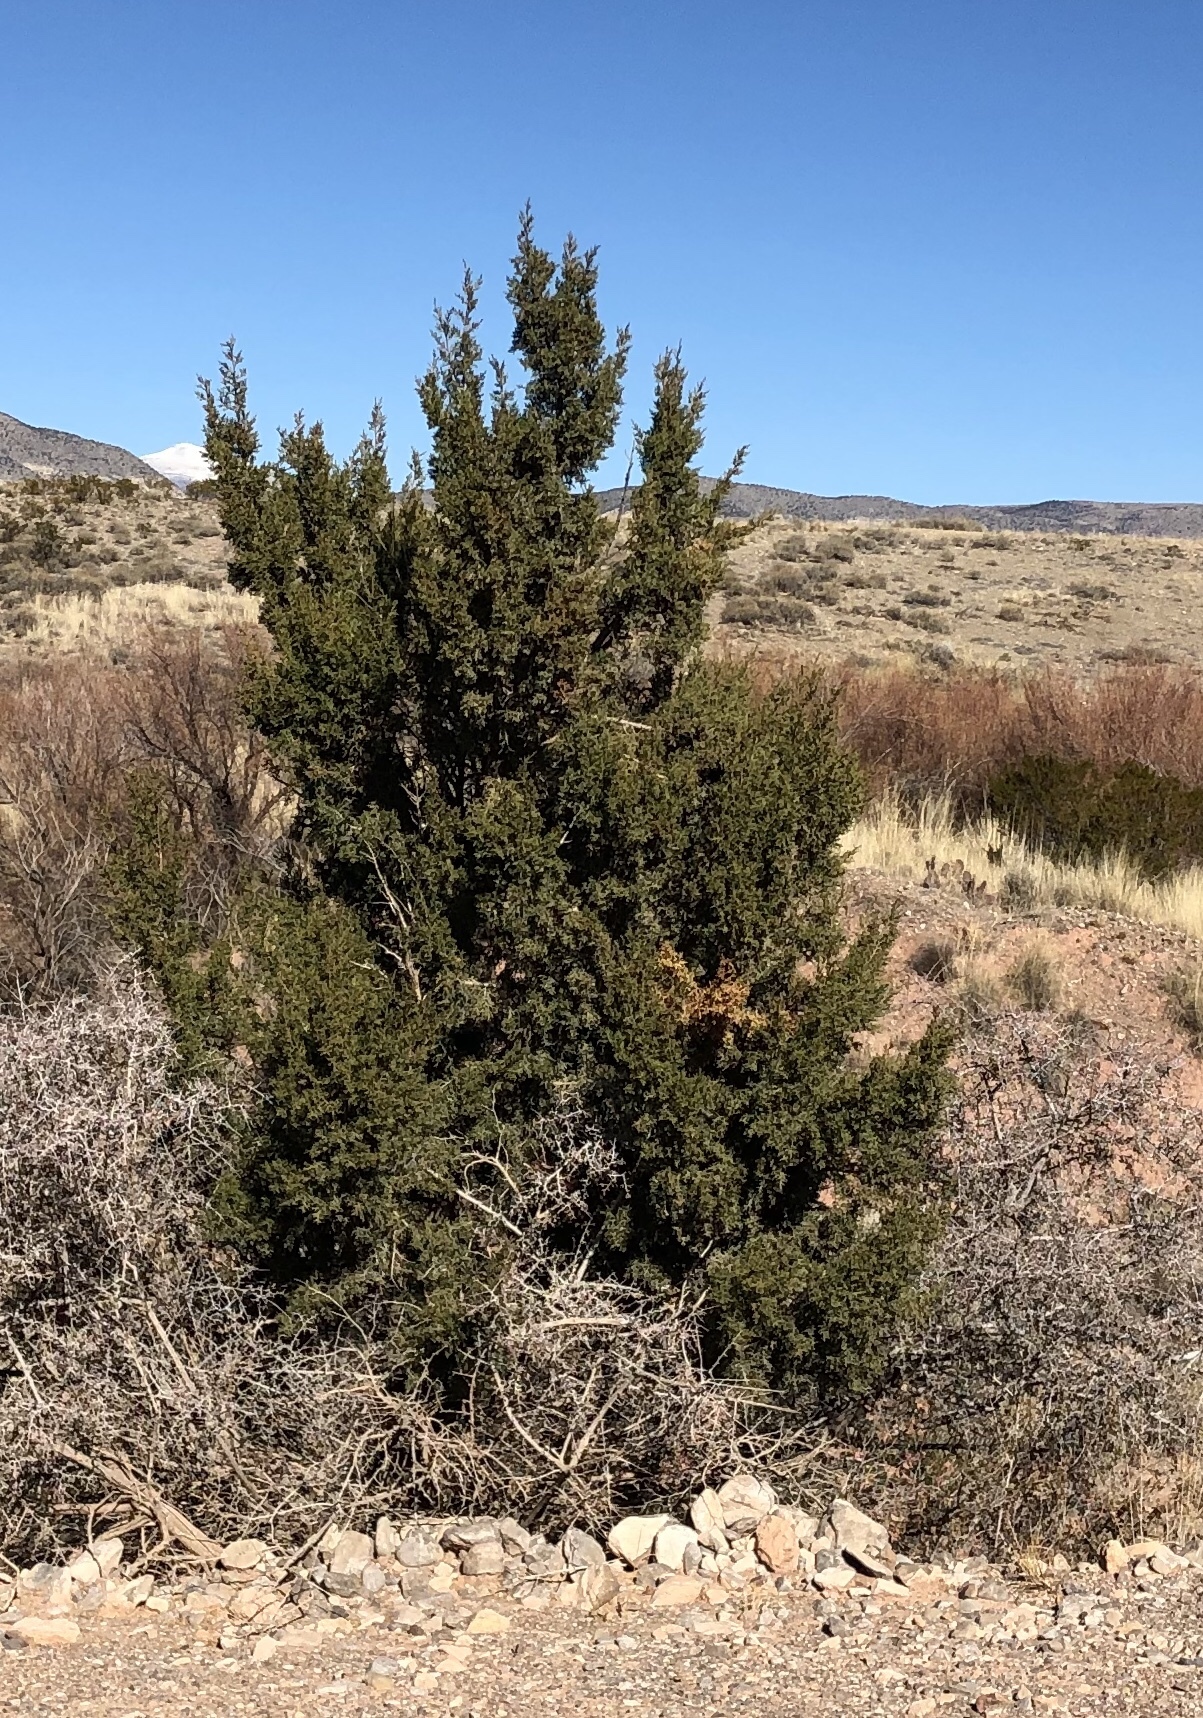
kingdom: Plantae
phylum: Tracheophyta
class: Pinopsida
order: Pinales
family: Cupressaceae
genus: Juniperus
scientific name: Juniperus monosperma
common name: One-seed juniper
